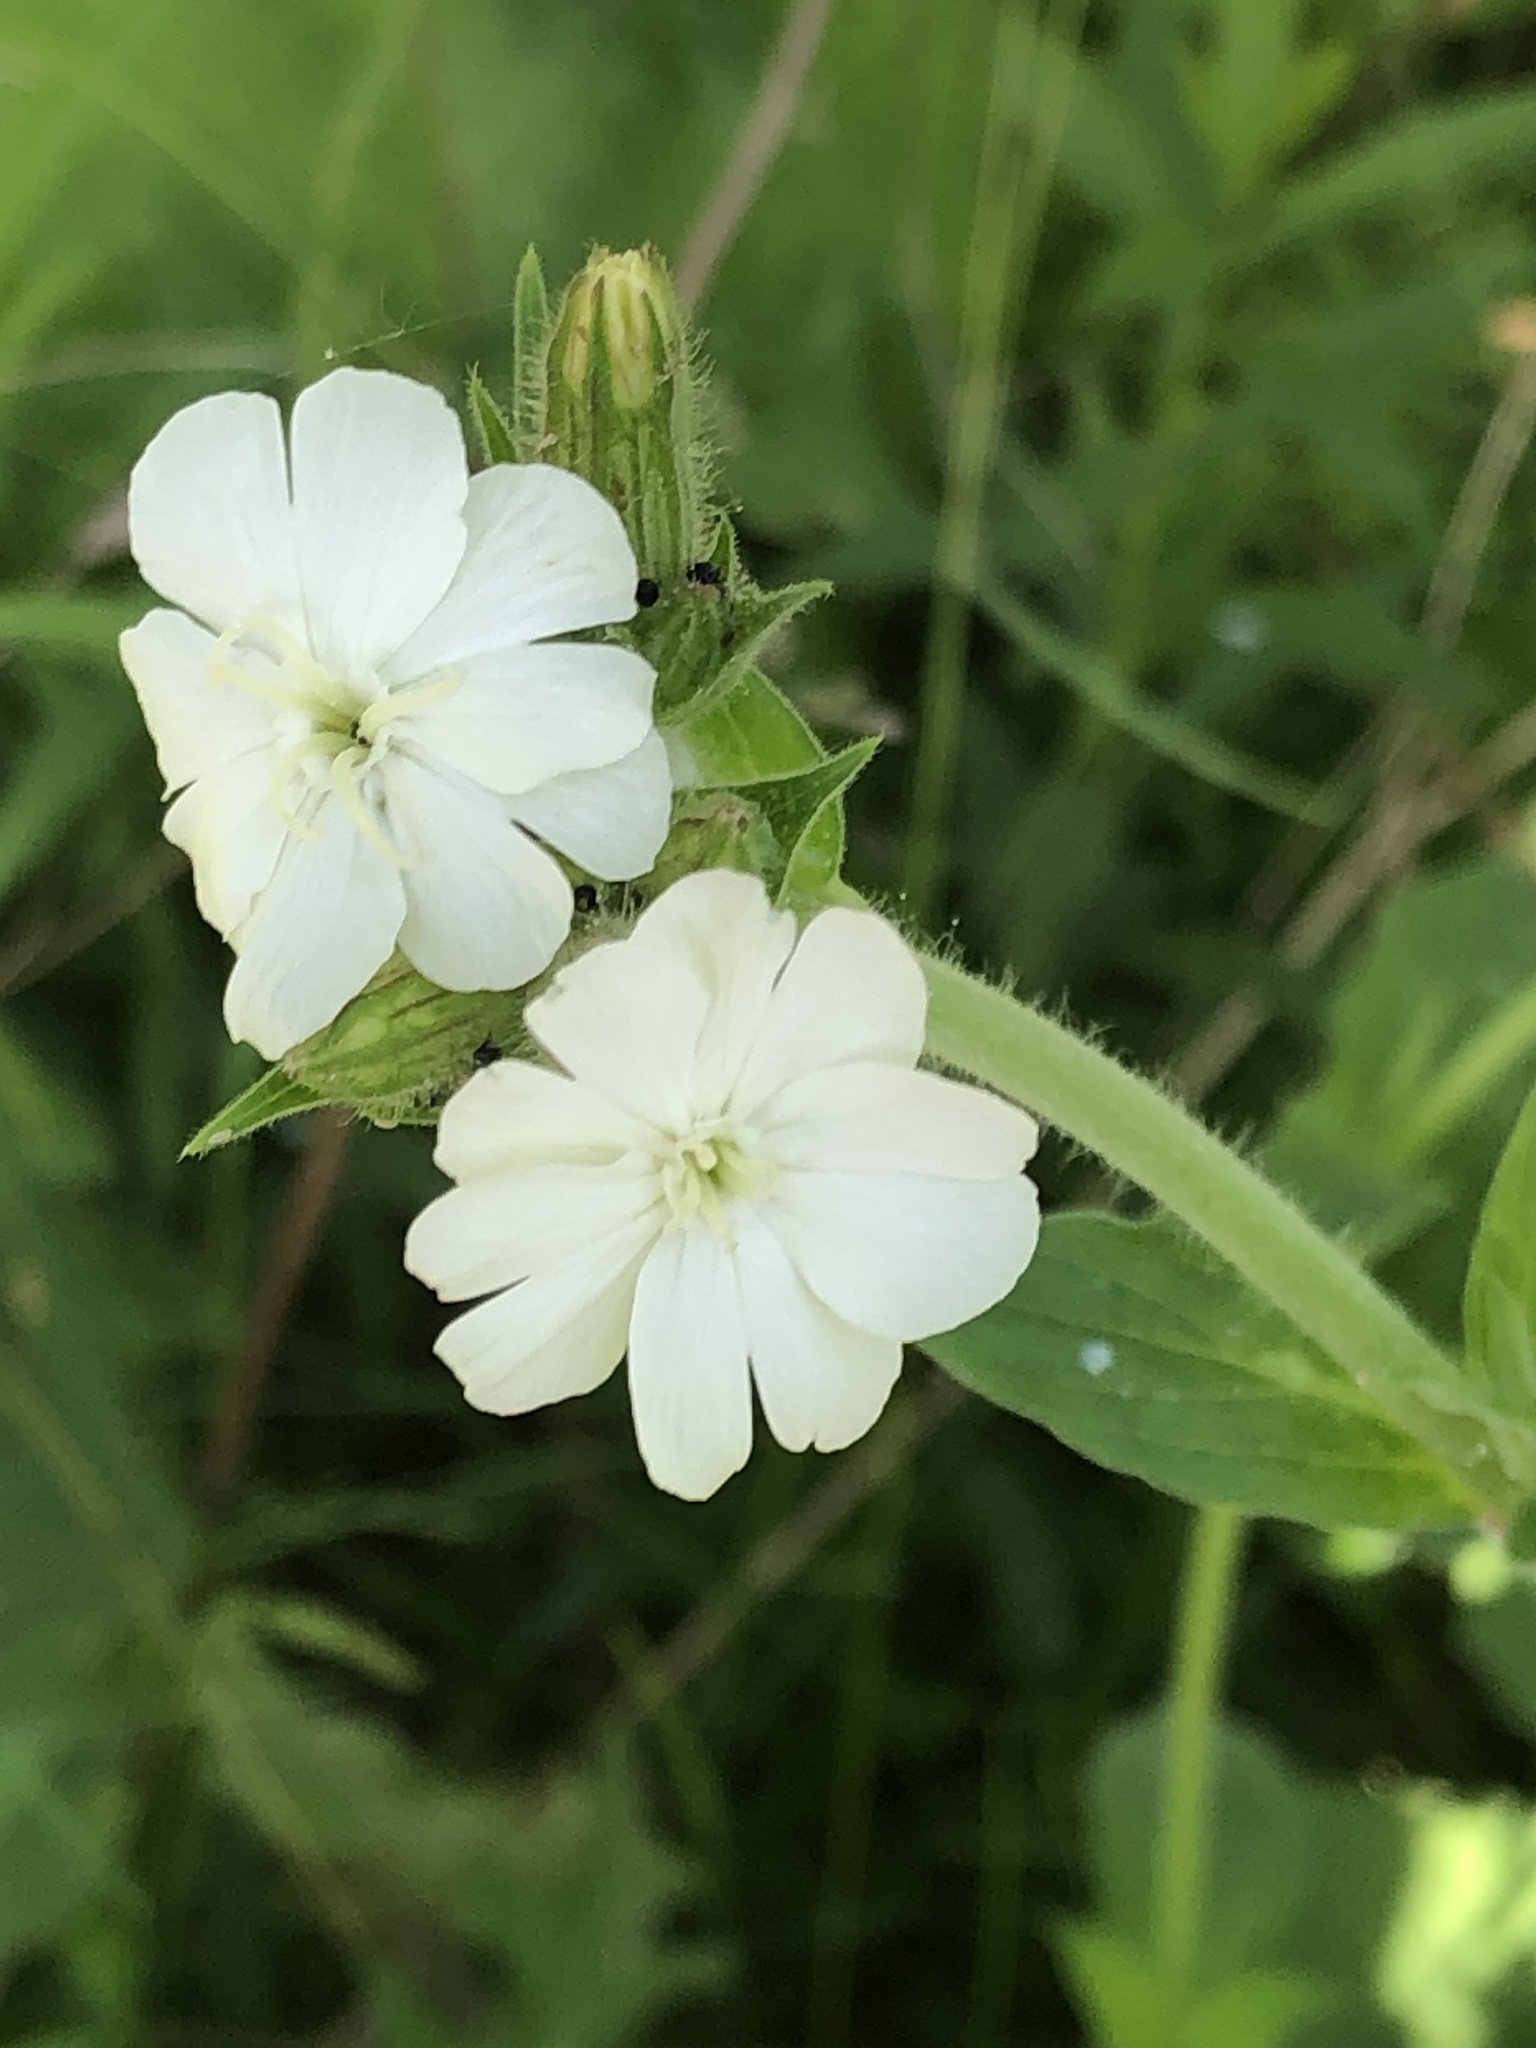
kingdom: Plantae
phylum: Tracheophyta
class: Magnoliopsida
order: Caryophyllales
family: Caryophyllaceae
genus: Silene
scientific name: Silene latifolia
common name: White campion
